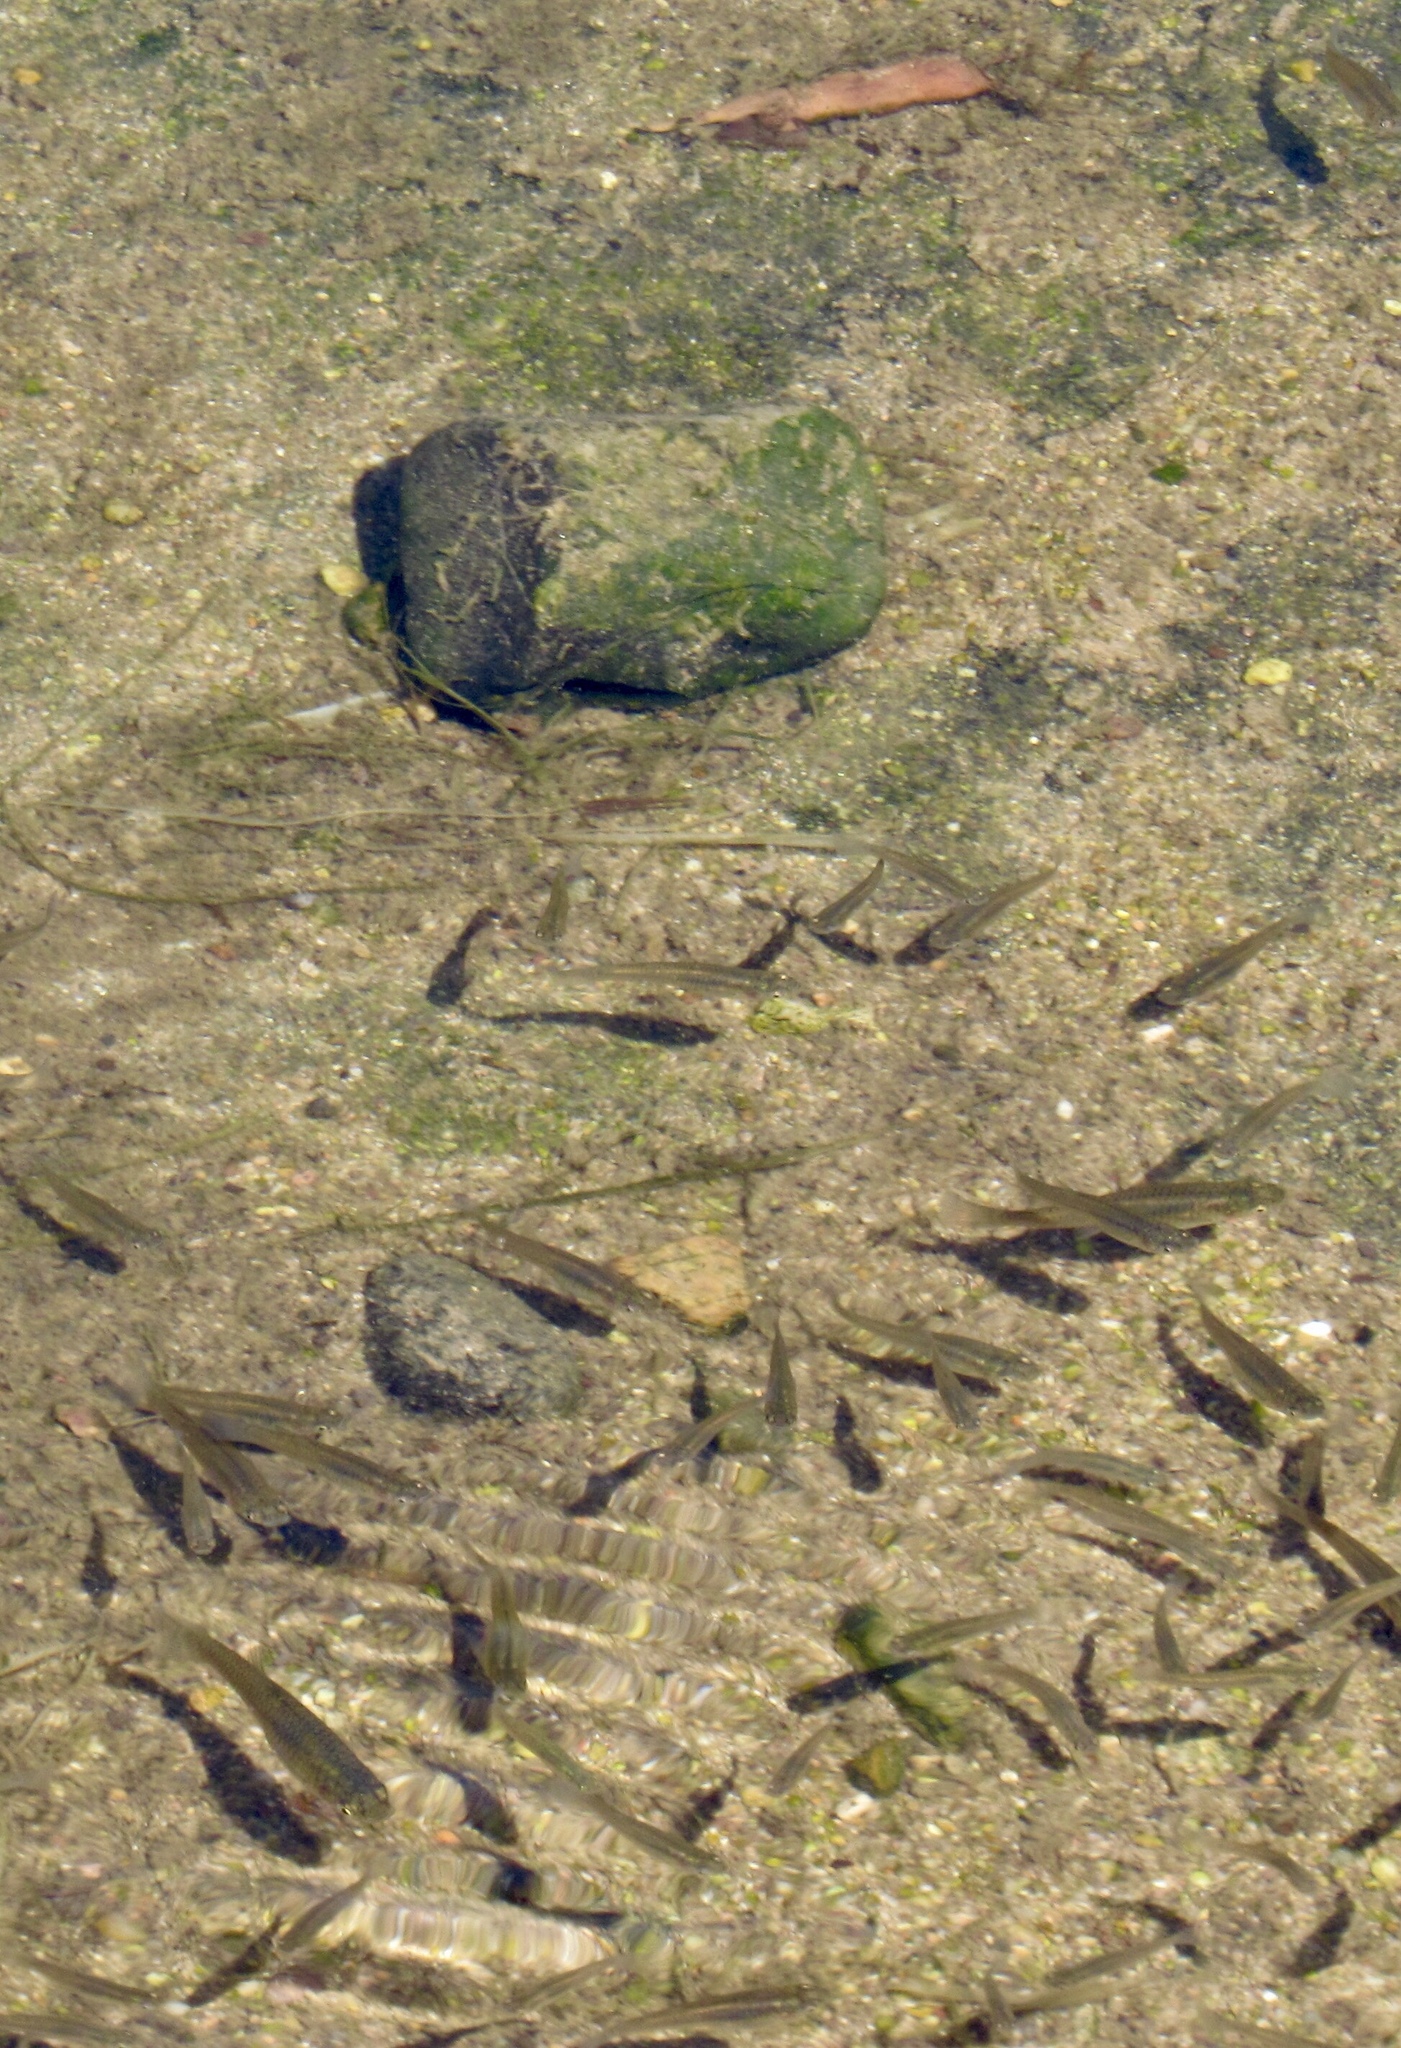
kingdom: Animalia
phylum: Chordata
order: Cyprinodontiformes
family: Poeciliidae
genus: Gambusia
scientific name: Gambusia affinis
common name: Mosquitofish
